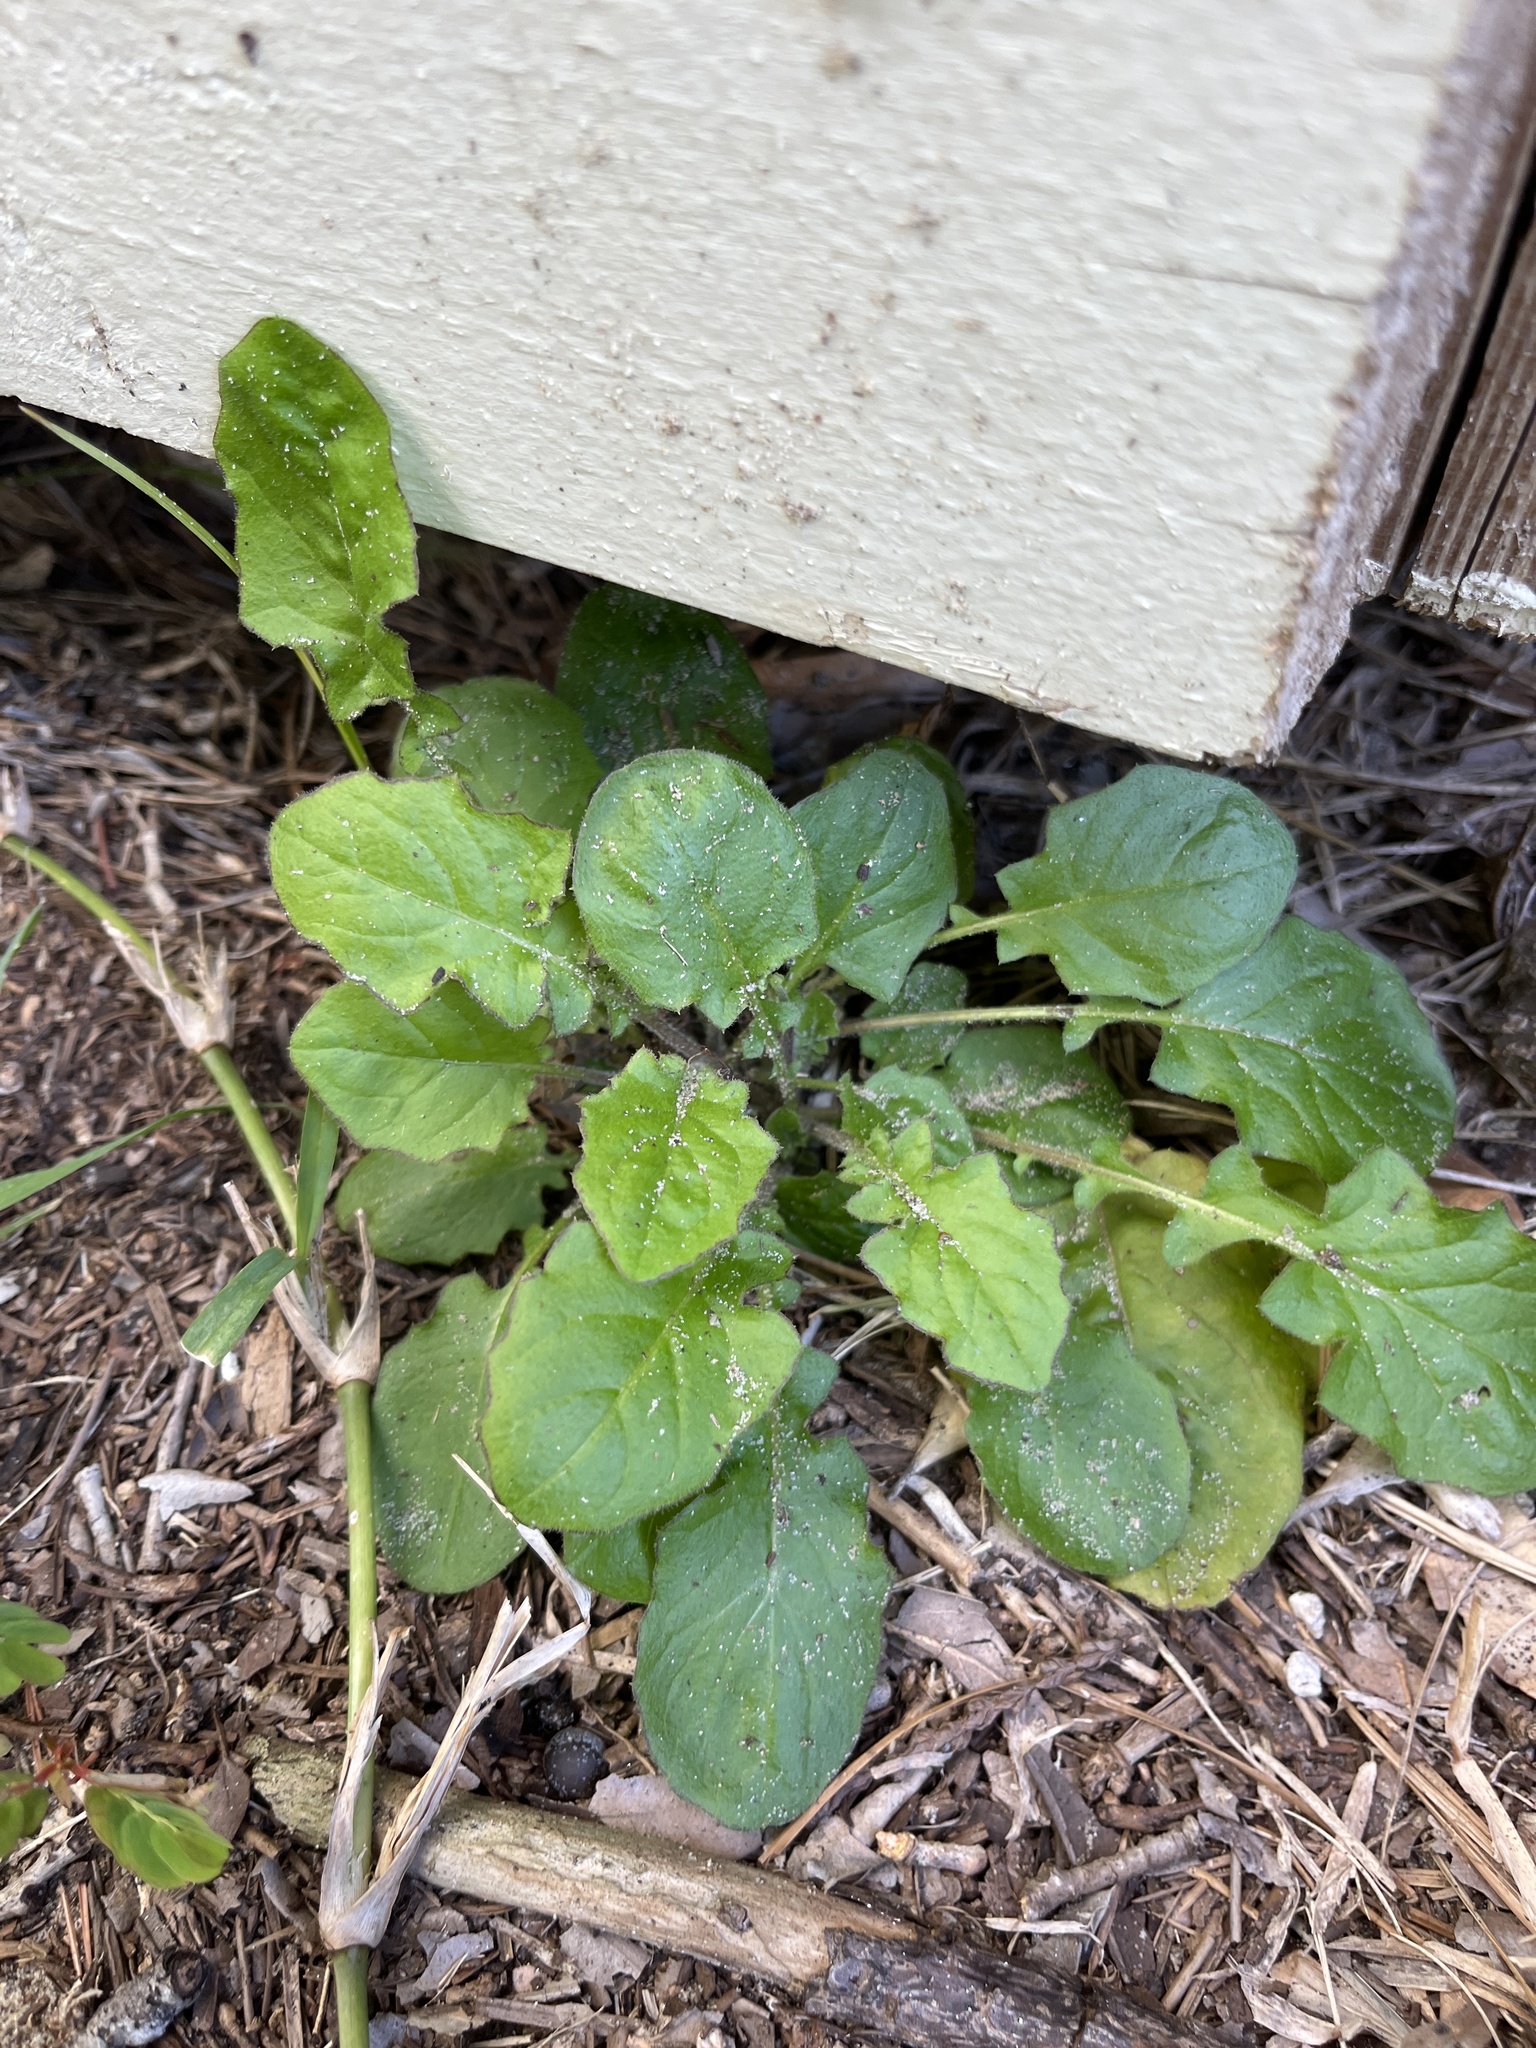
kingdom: Plantae
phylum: Tracheophyta
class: Magnoliopsida
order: Asterales
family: Asteraceae
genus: Youngia
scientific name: Youngia japonica
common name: Oriental false hawksbeard
